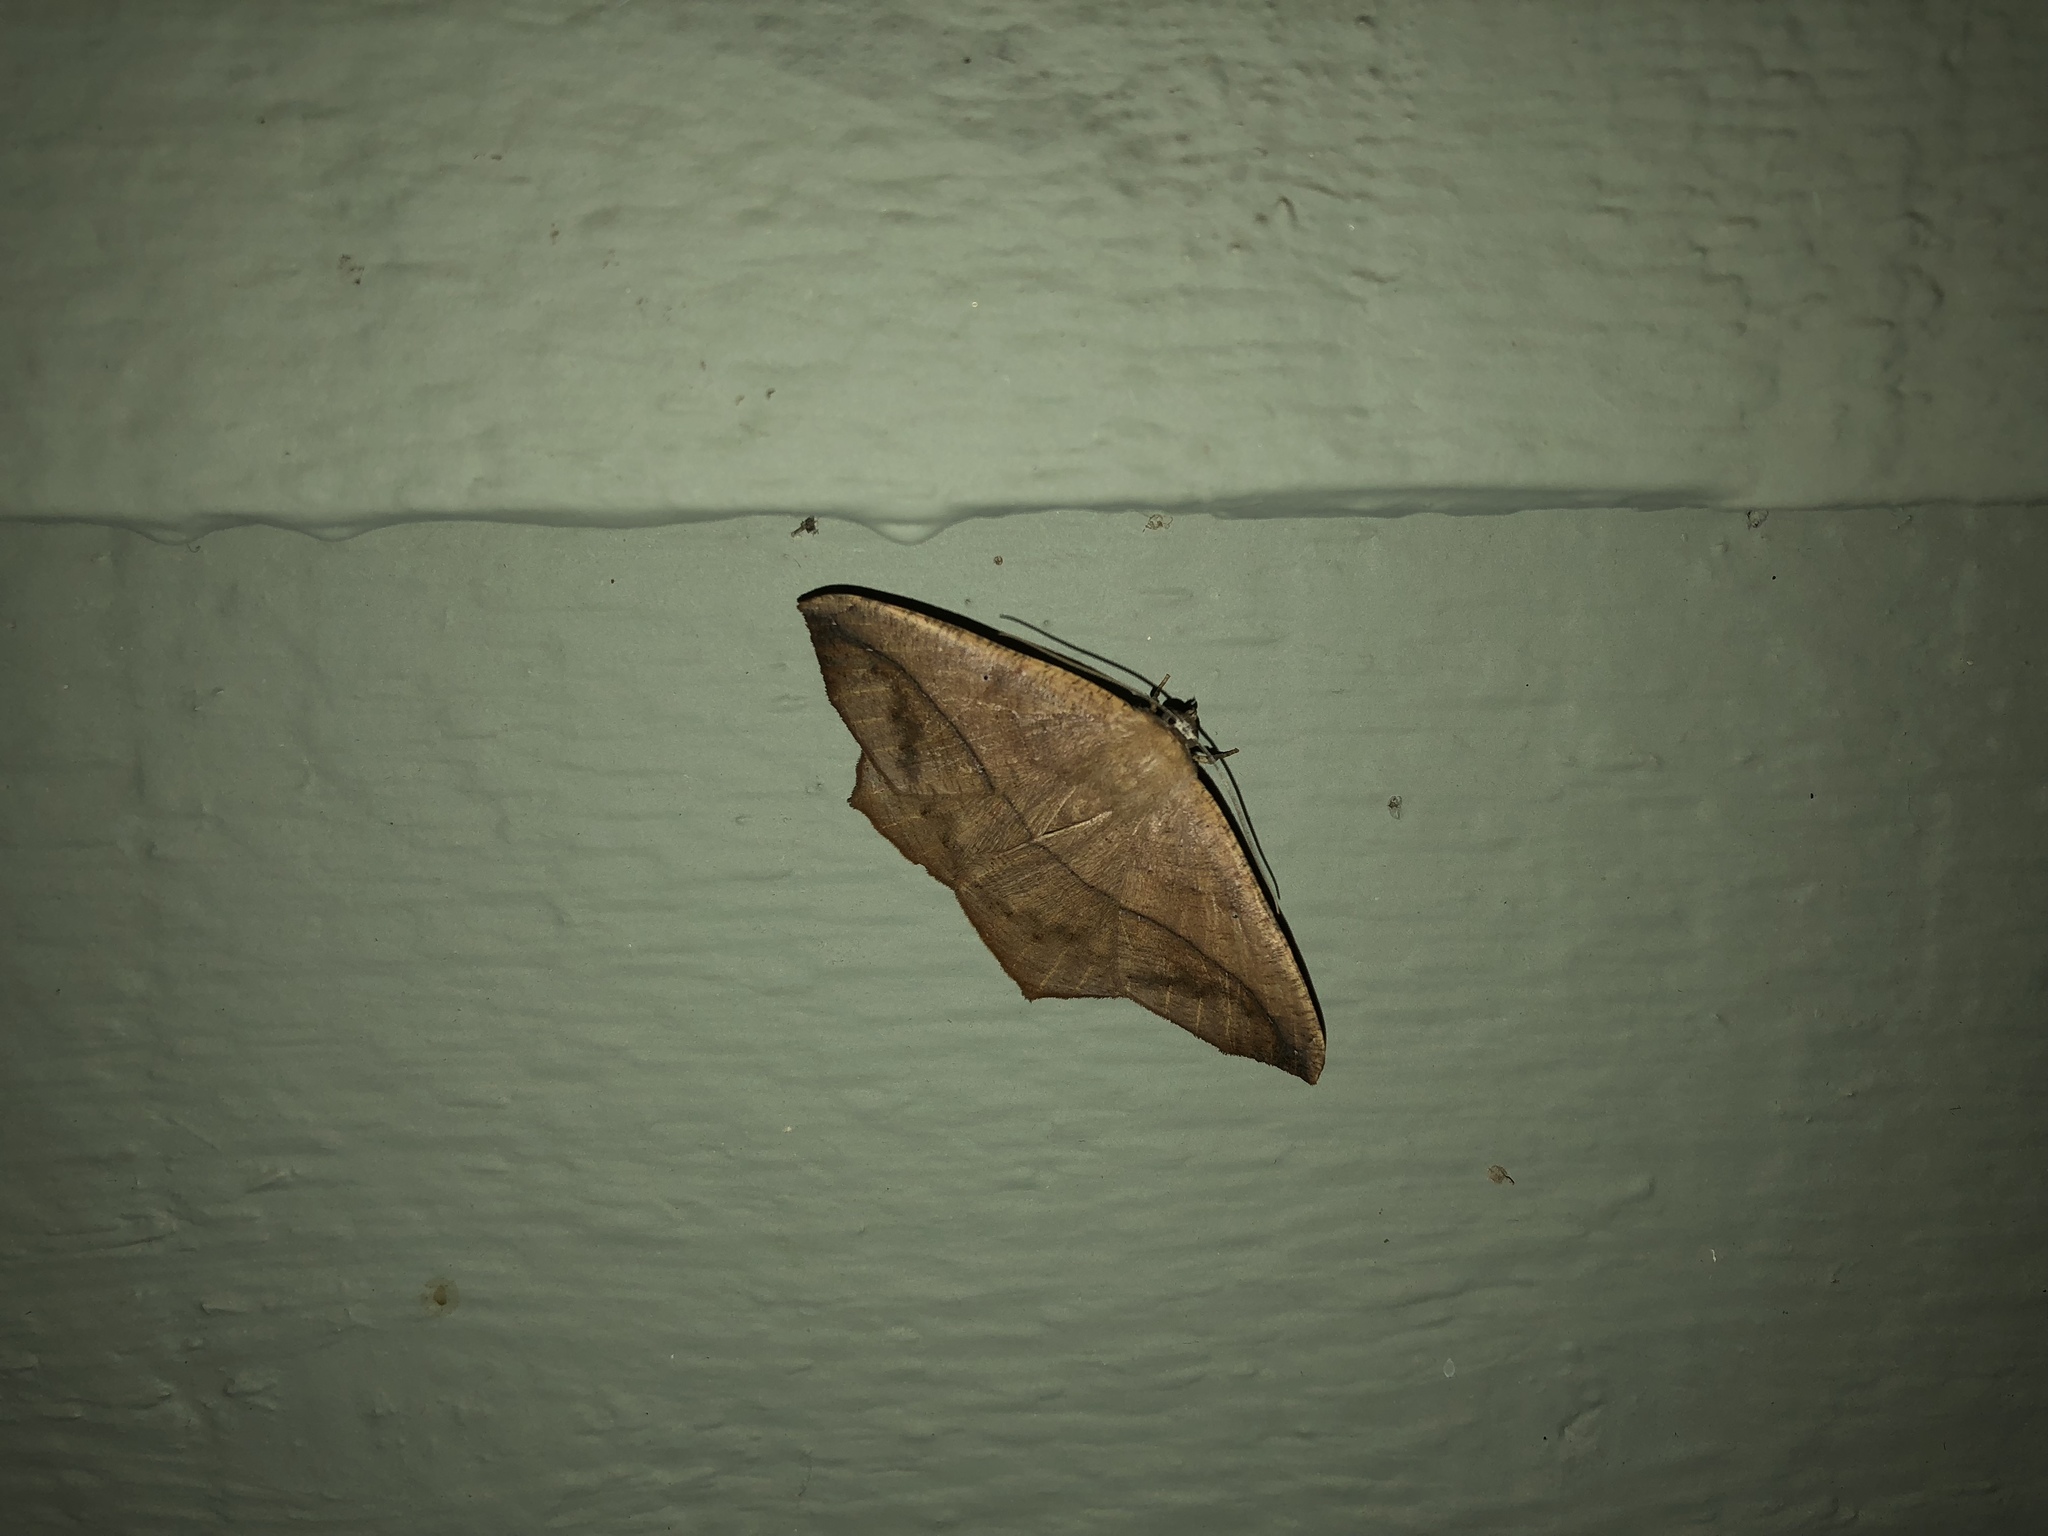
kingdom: Animalia
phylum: Arthropoda
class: Insecta
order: Lepidoptera
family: Geometridae
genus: Prochoerodes
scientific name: Prochoerodes lineola
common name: Large maple spanworm
